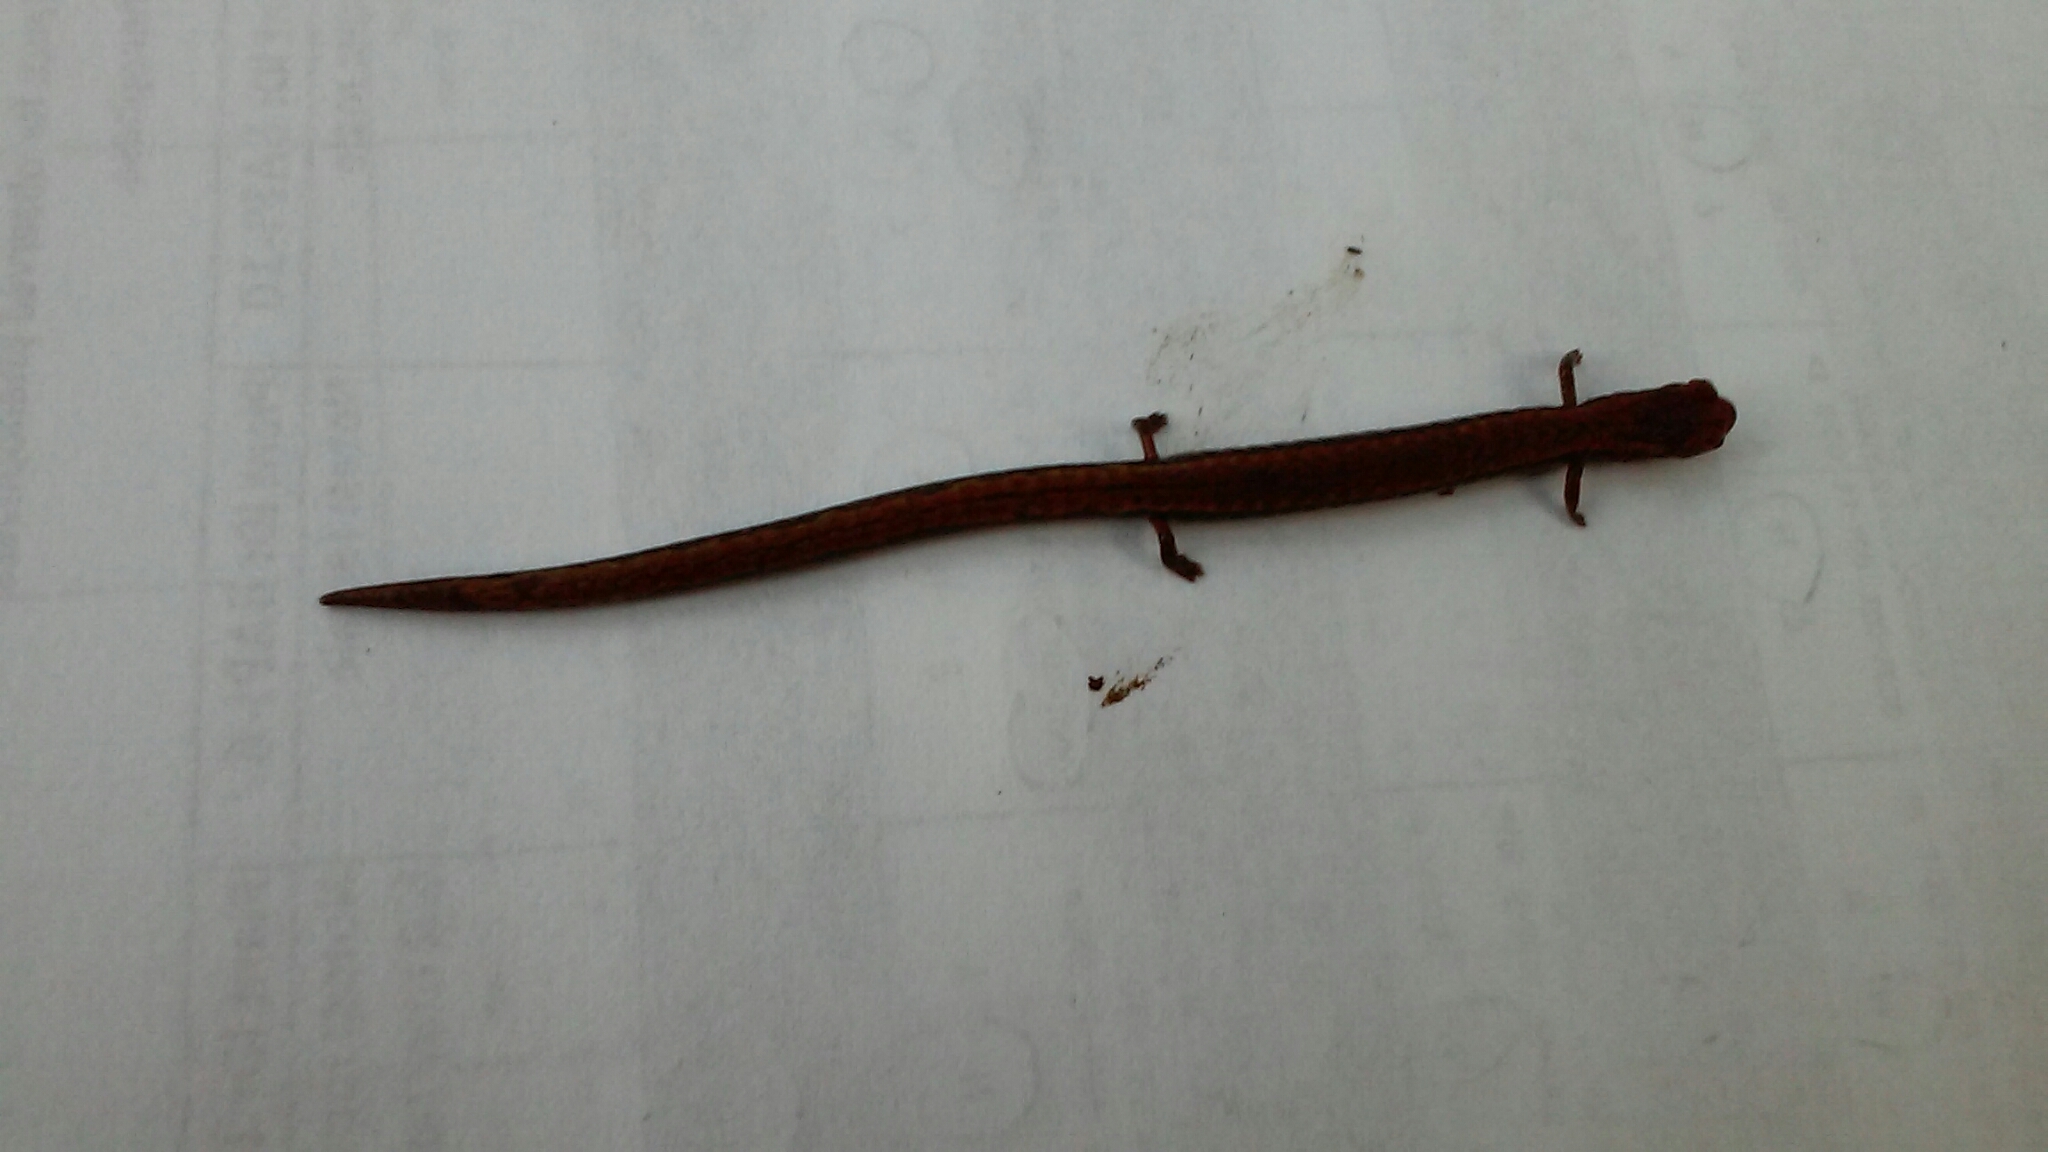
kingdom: Animalia
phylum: Chordata
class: Amphibia
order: Caudata
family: Plethodontidae
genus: Batrachoseps
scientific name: Batrachoseps attenuatus
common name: California slender salamander
